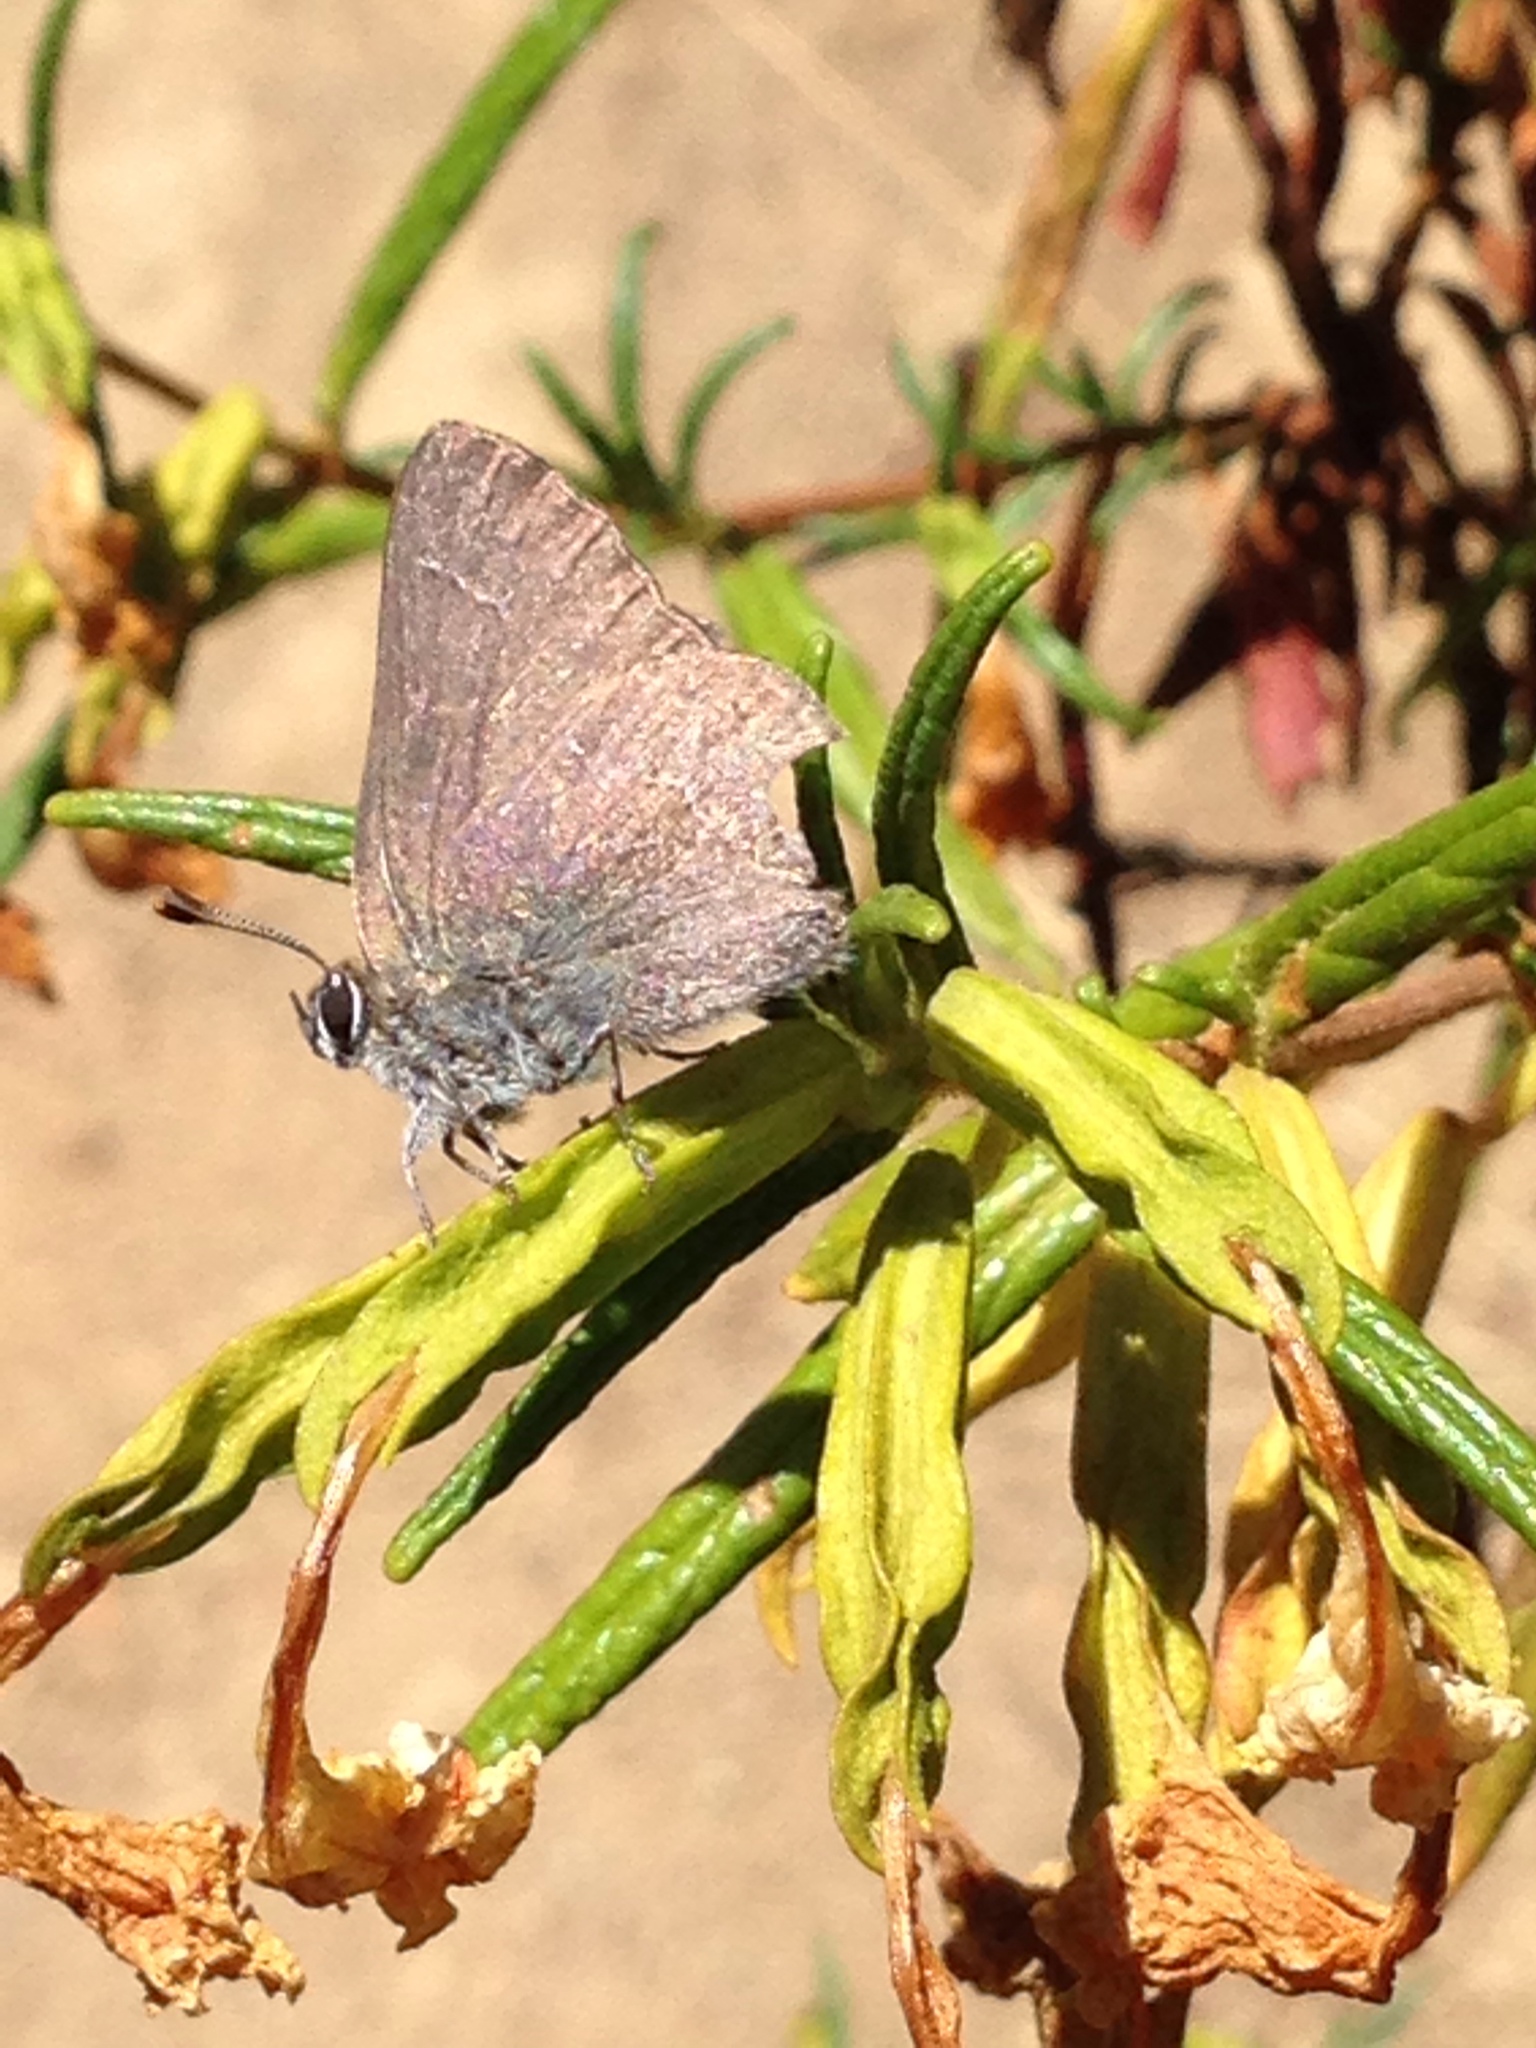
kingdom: Animalia
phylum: Arthropoda
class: Insecta
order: Lepidoptera
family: Lycaenidae
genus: Strymon
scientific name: Strymon saepium
